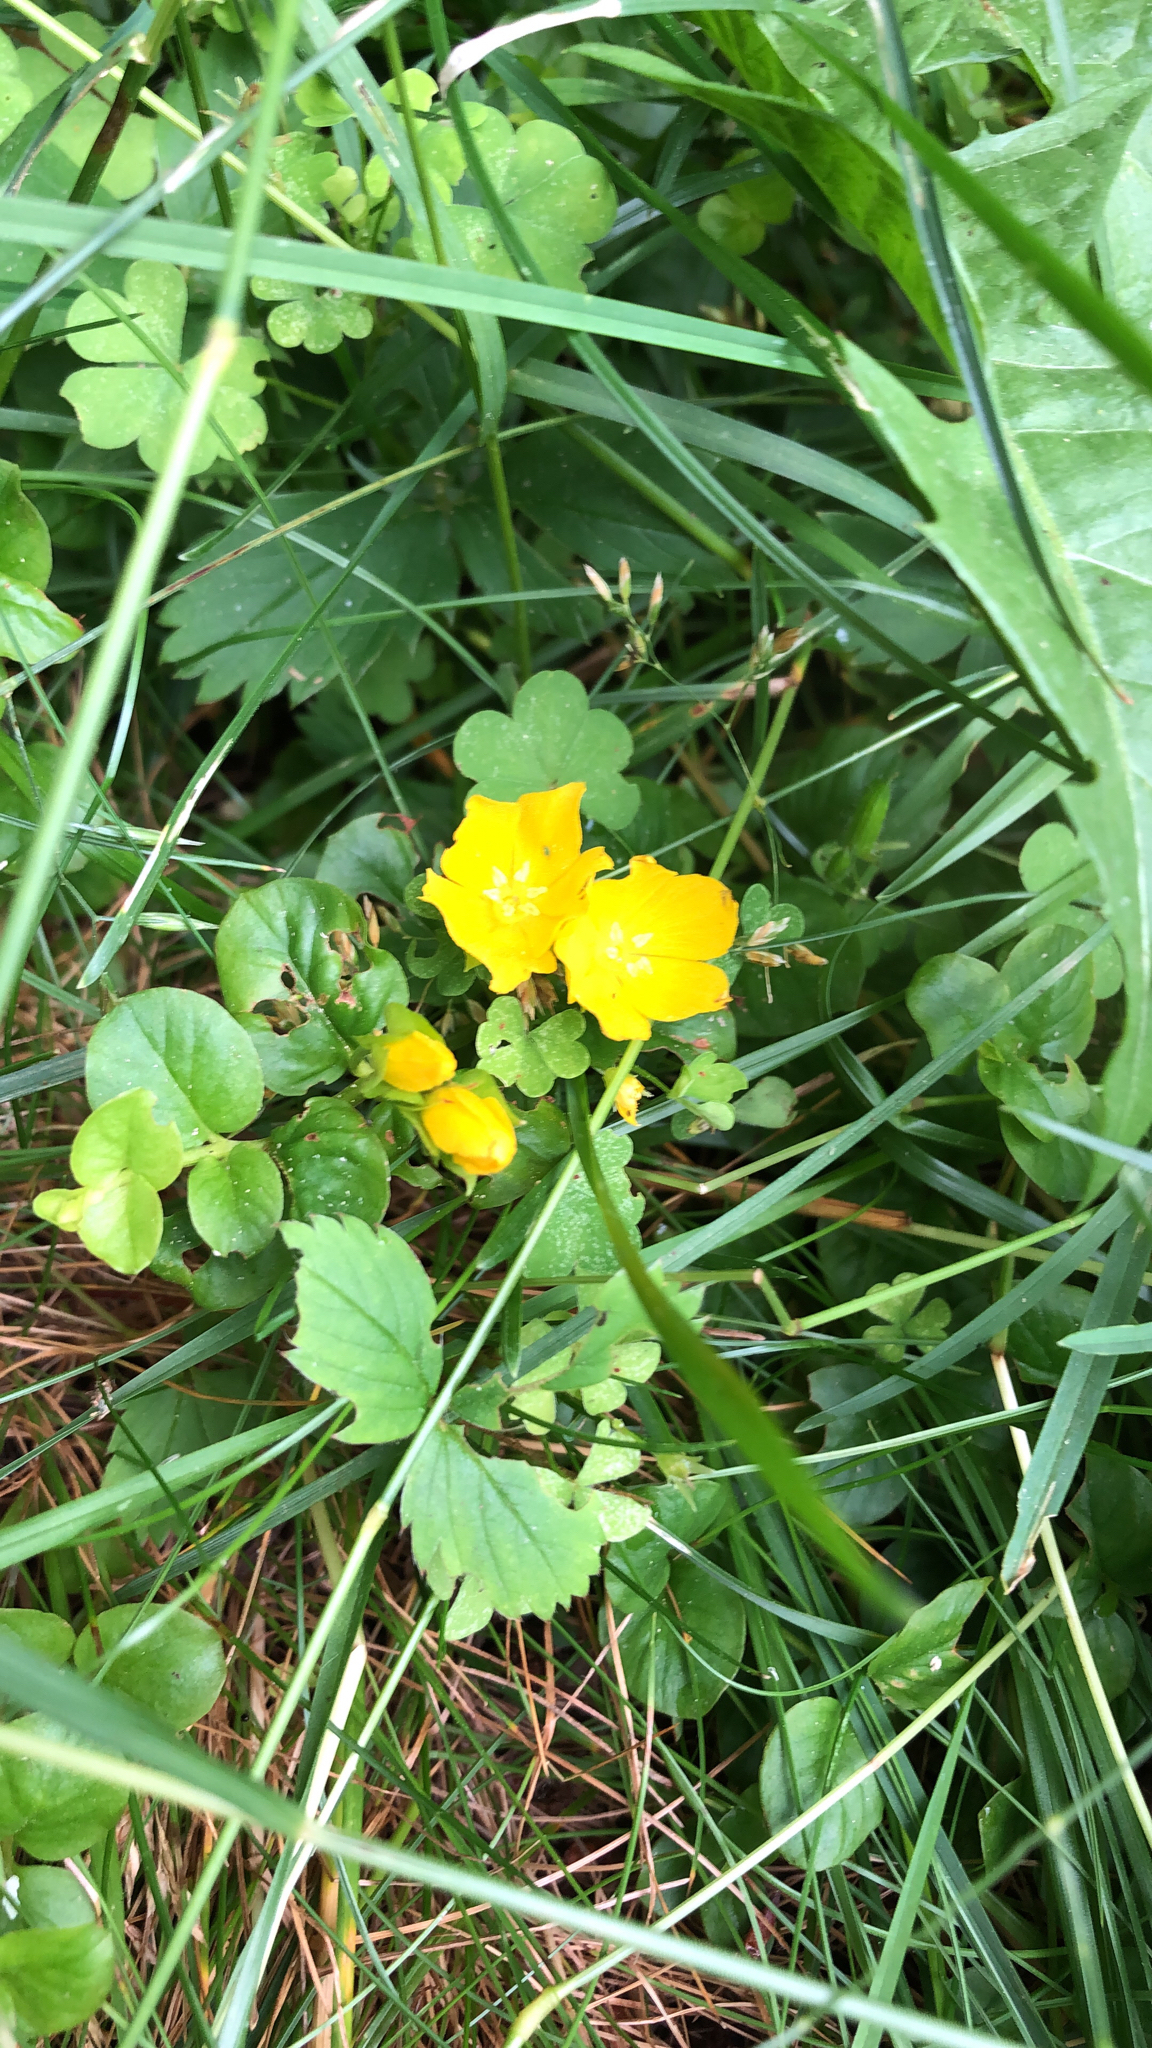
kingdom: Plantae
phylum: Tracheophyta
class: Magnoliopsida
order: Ericales
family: Primulaceae
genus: Lysimachia
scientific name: Lysimachia nummularia
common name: Moneywort
